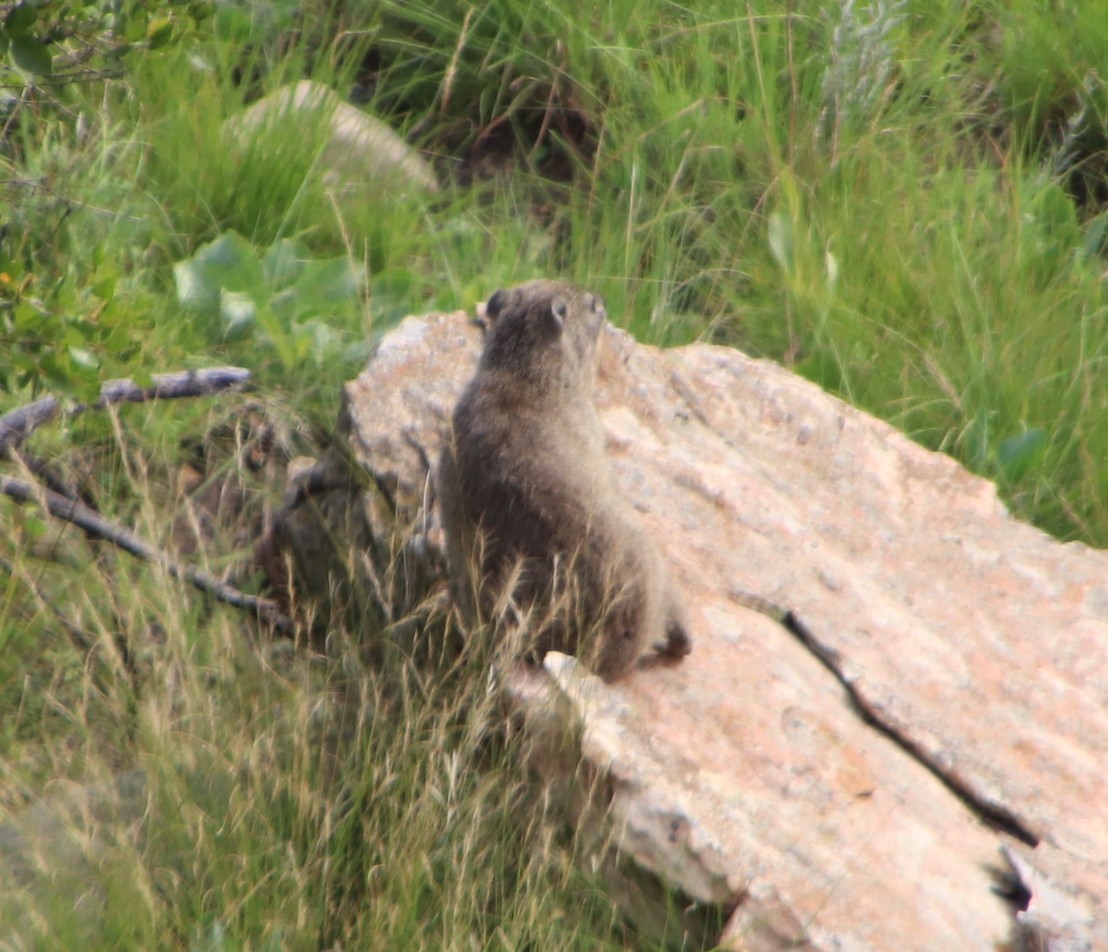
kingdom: Animalia
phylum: Chordata
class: Mammalia
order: Hyracoidea
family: Procaviidae
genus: Procavia
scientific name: Procavia capensis
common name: Rock hyrax
